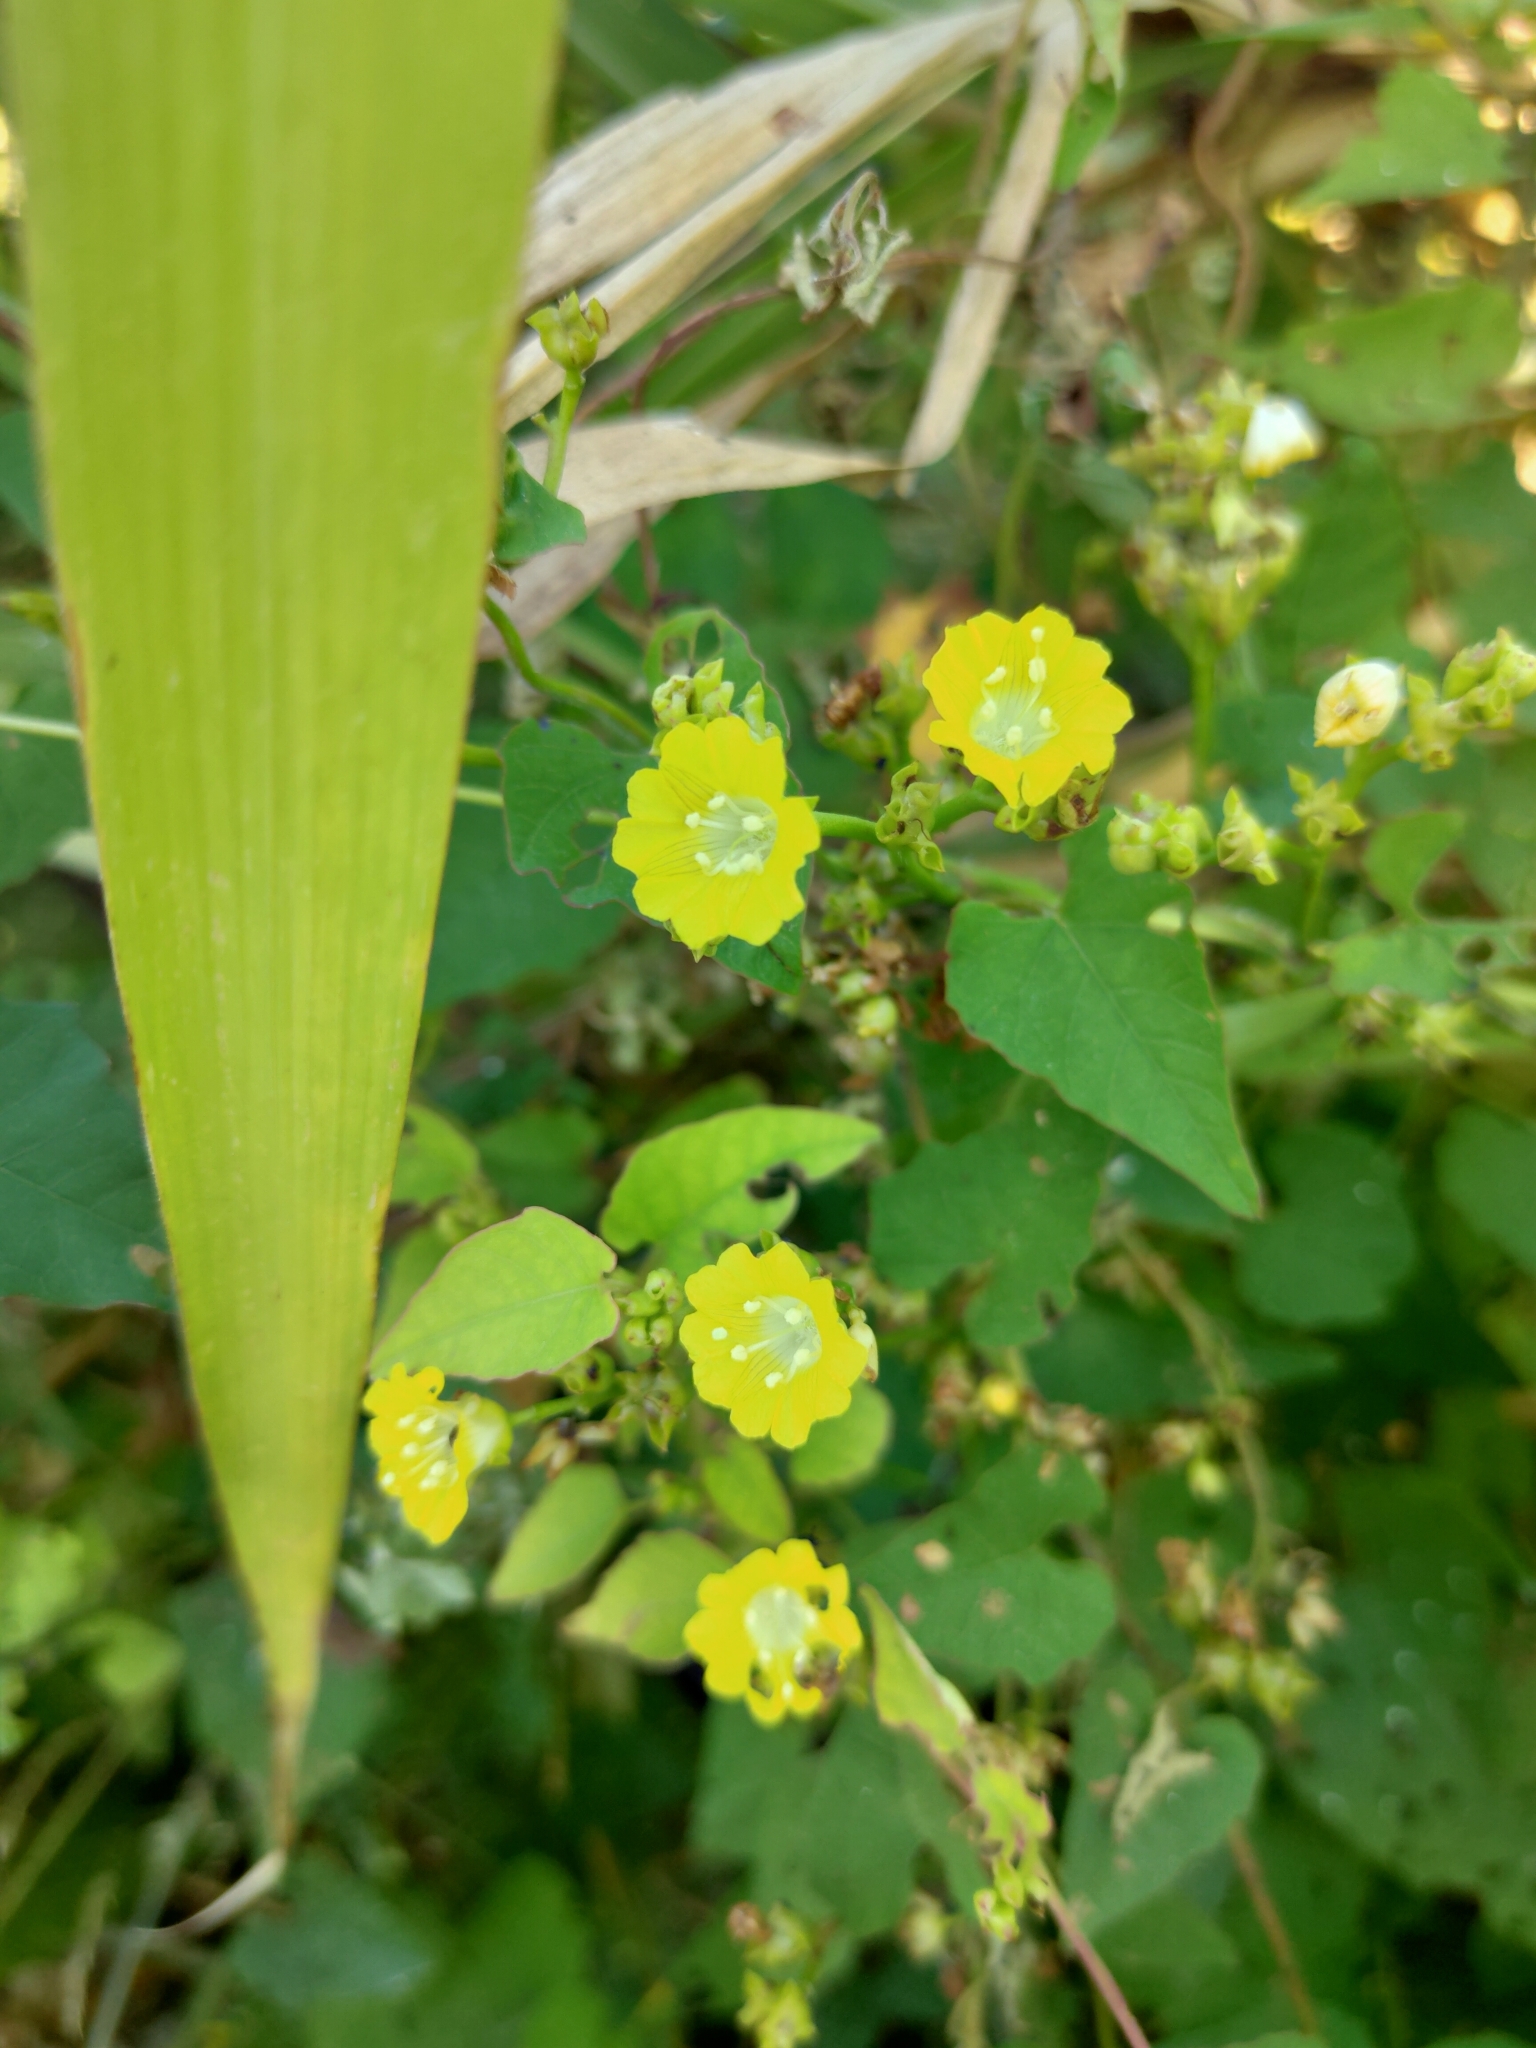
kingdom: Plantae
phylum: Tracheophyta
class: Magnoliopsida
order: Solanales
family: Convolvulaceae
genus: Merremia
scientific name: Merremia hederacea
